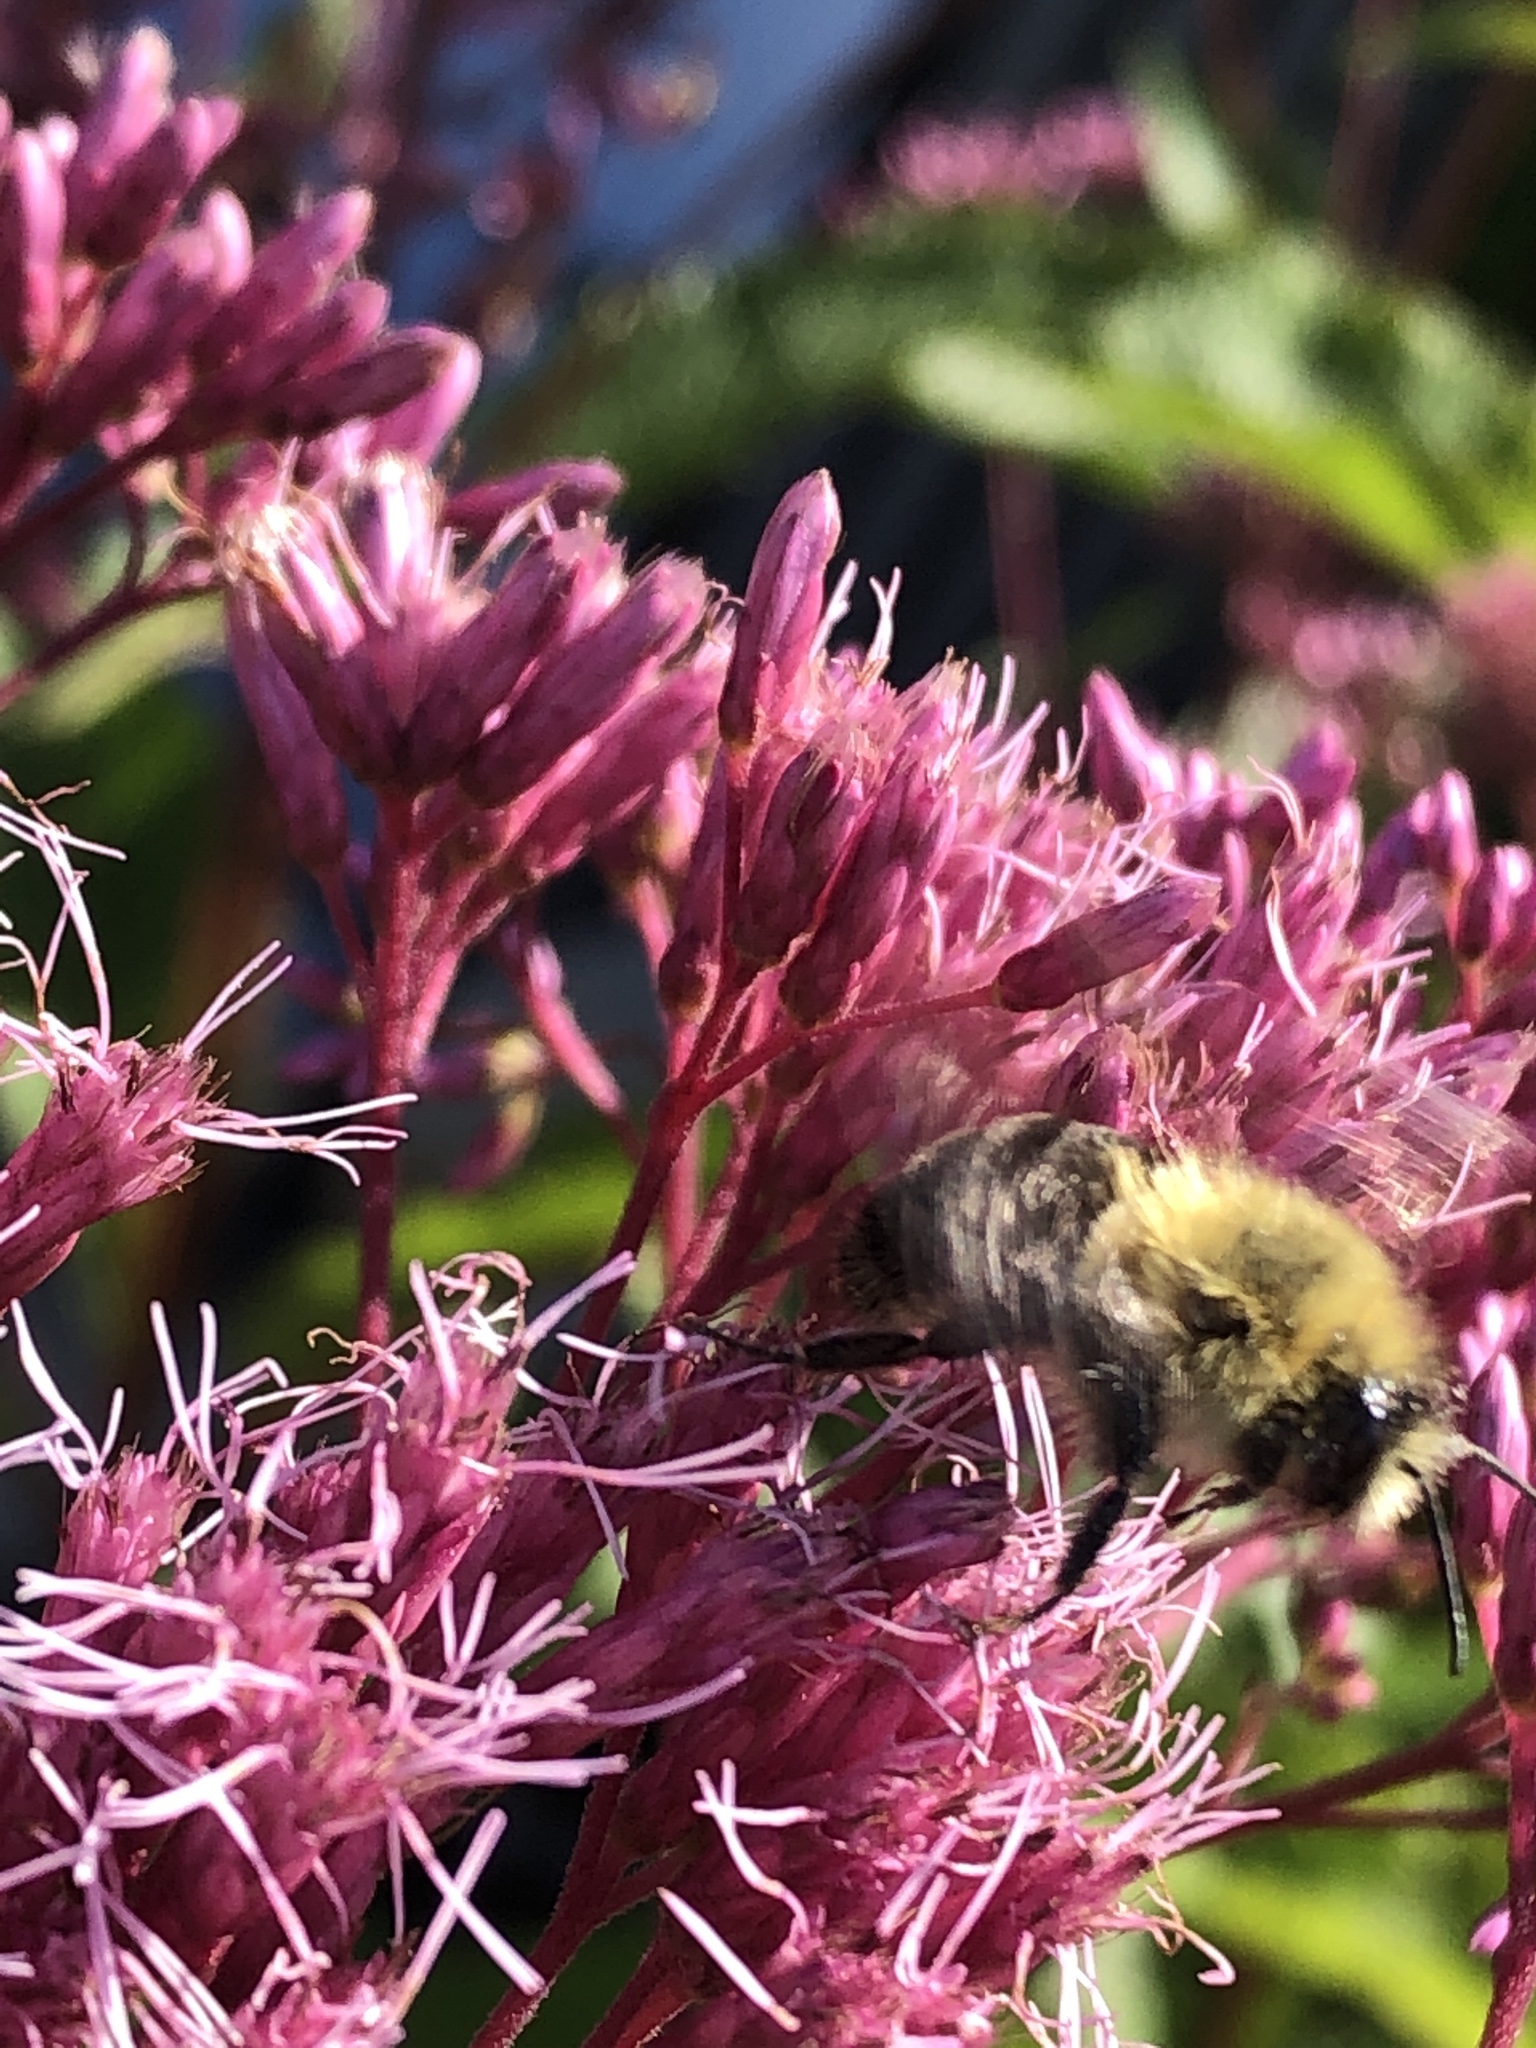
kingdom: Animalia
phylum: Arthropoda
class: Insecta
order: Hymenoptera
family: Apidae
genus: Bombus
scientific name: Bombus impatiens
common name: Common eastern bumble bee
